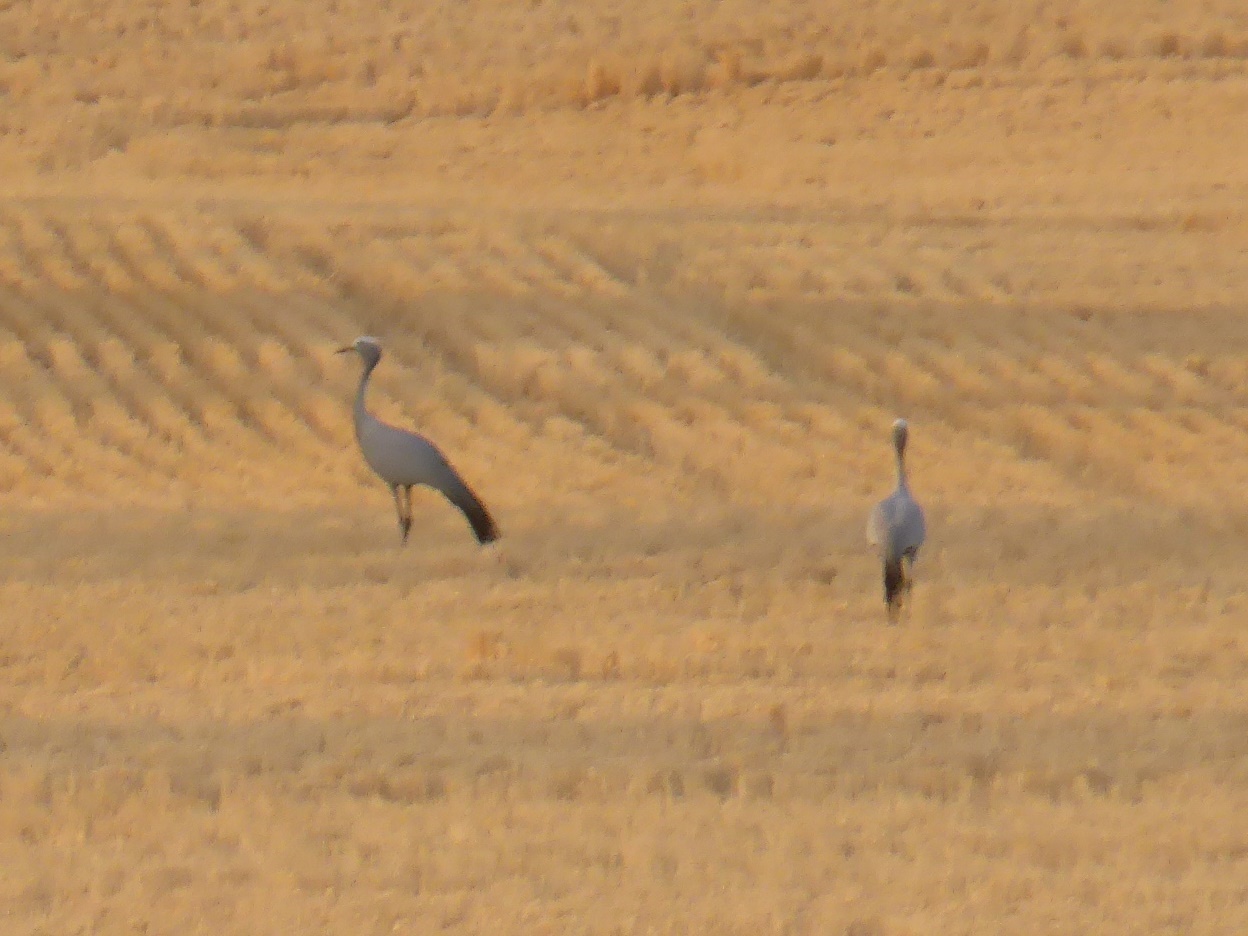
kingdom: Animalia
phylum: Chordata
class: Aves
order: Gruiformes
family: Gruidae
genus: Anthropoides
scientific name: Anthropoides paradiseus
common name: Blue crane
